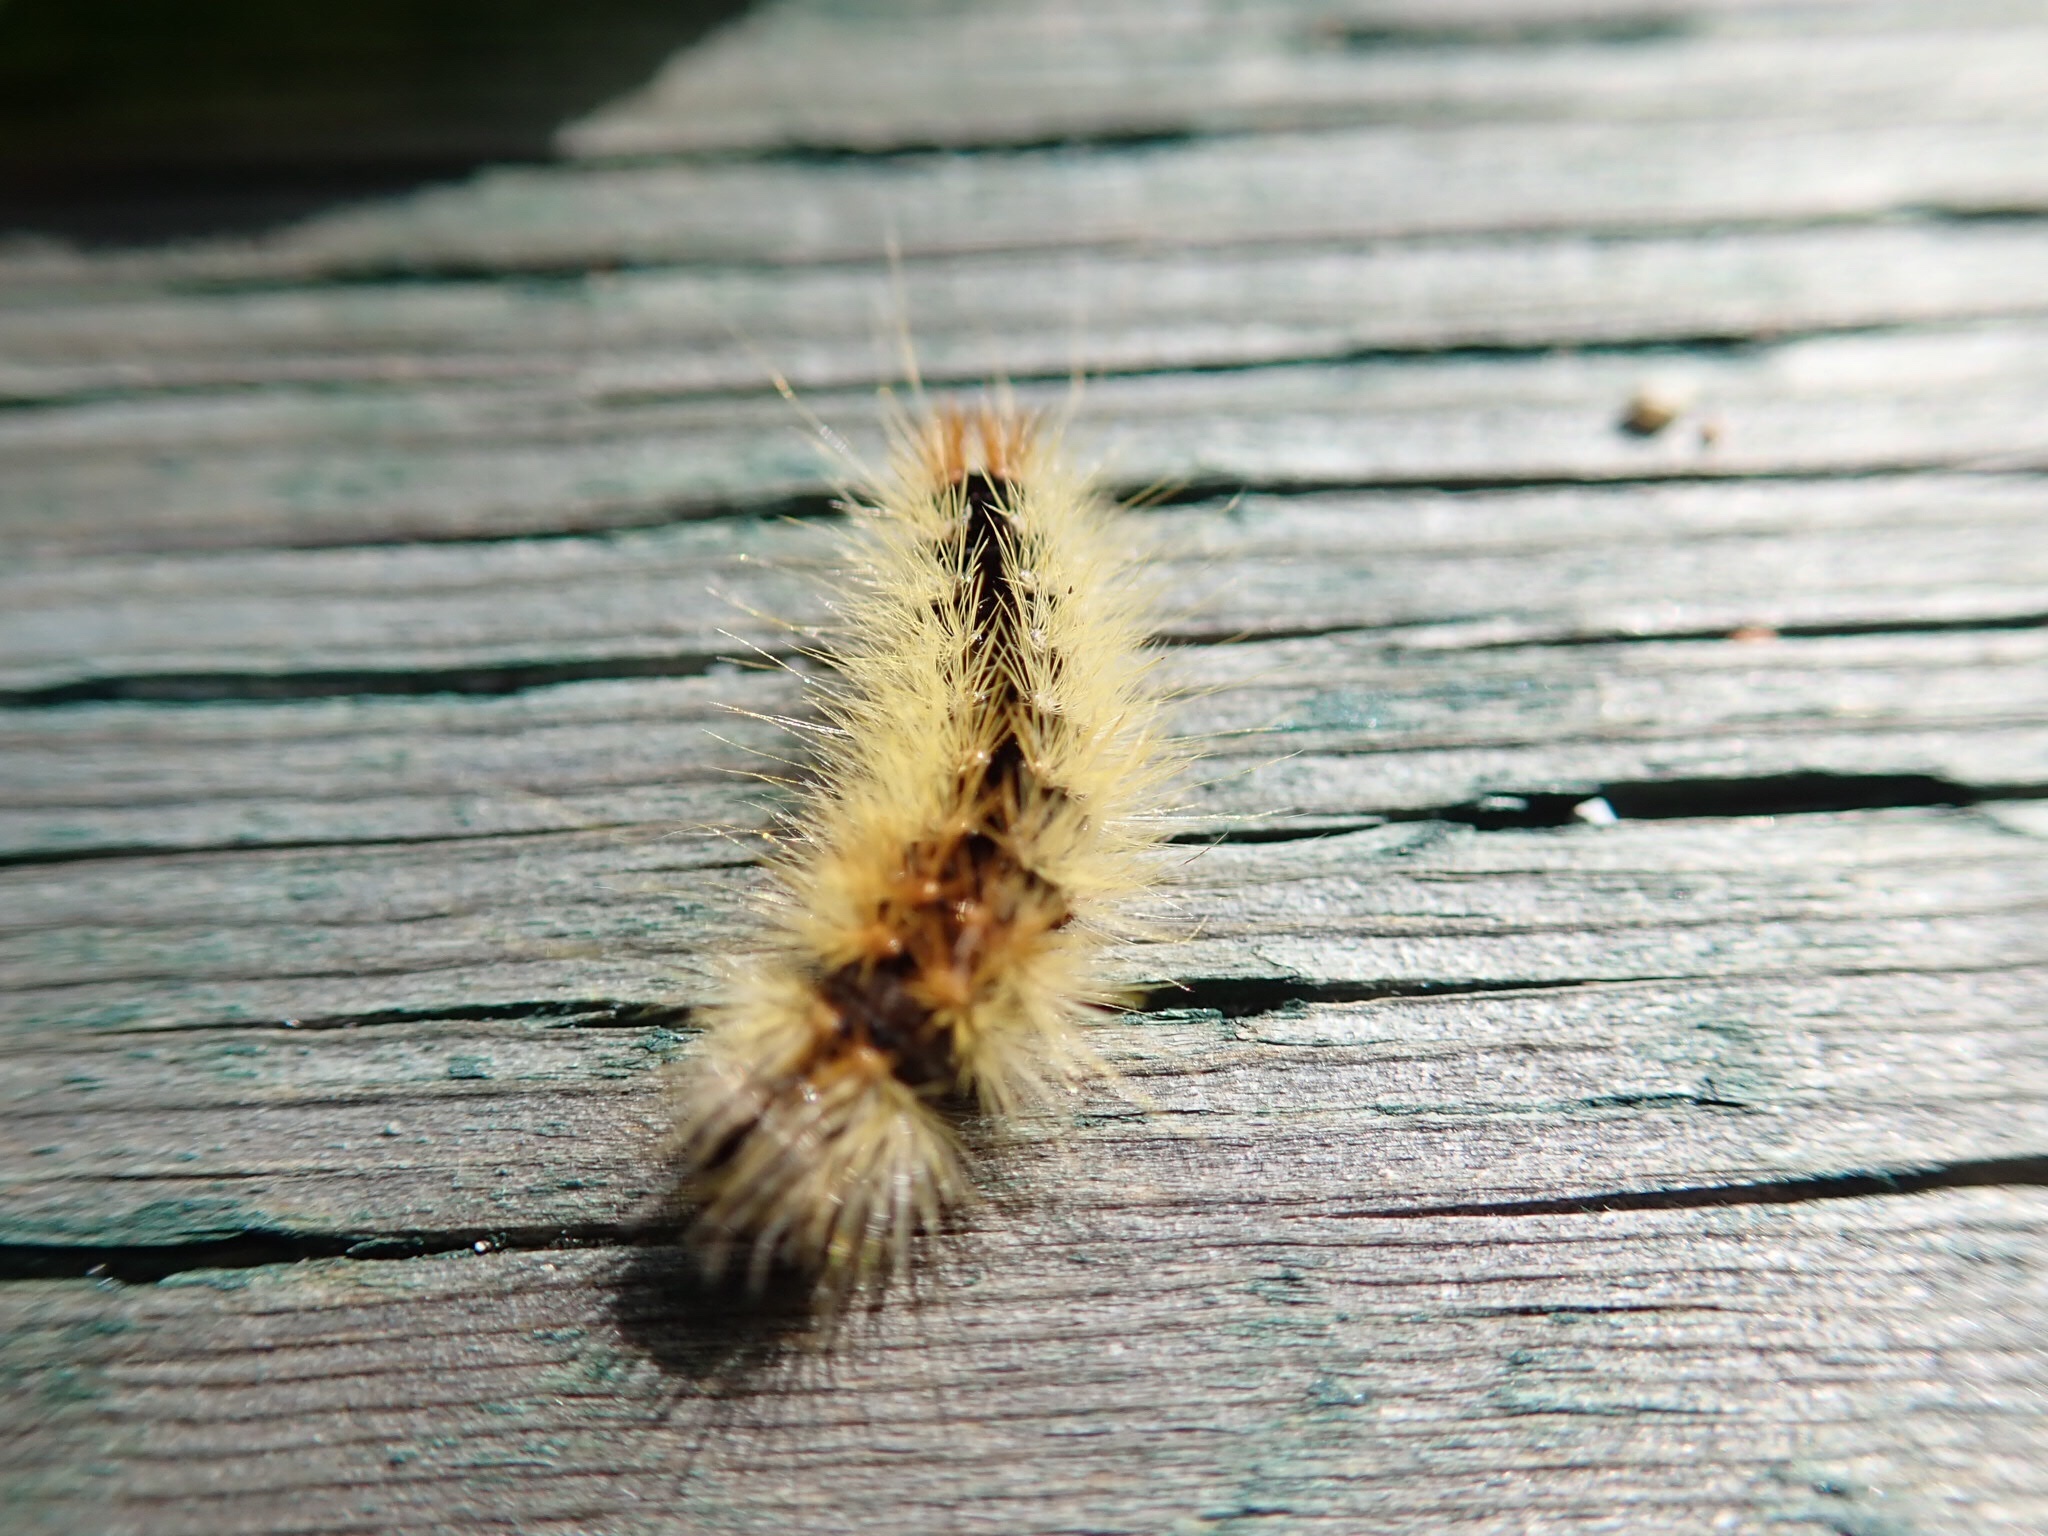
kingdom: Animalia
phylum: Arthropoda
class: Insecta
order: Lepidoptera
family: Noctuidae
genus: Acronicta
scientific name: Acronicta impressa
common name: Impressed dagger
